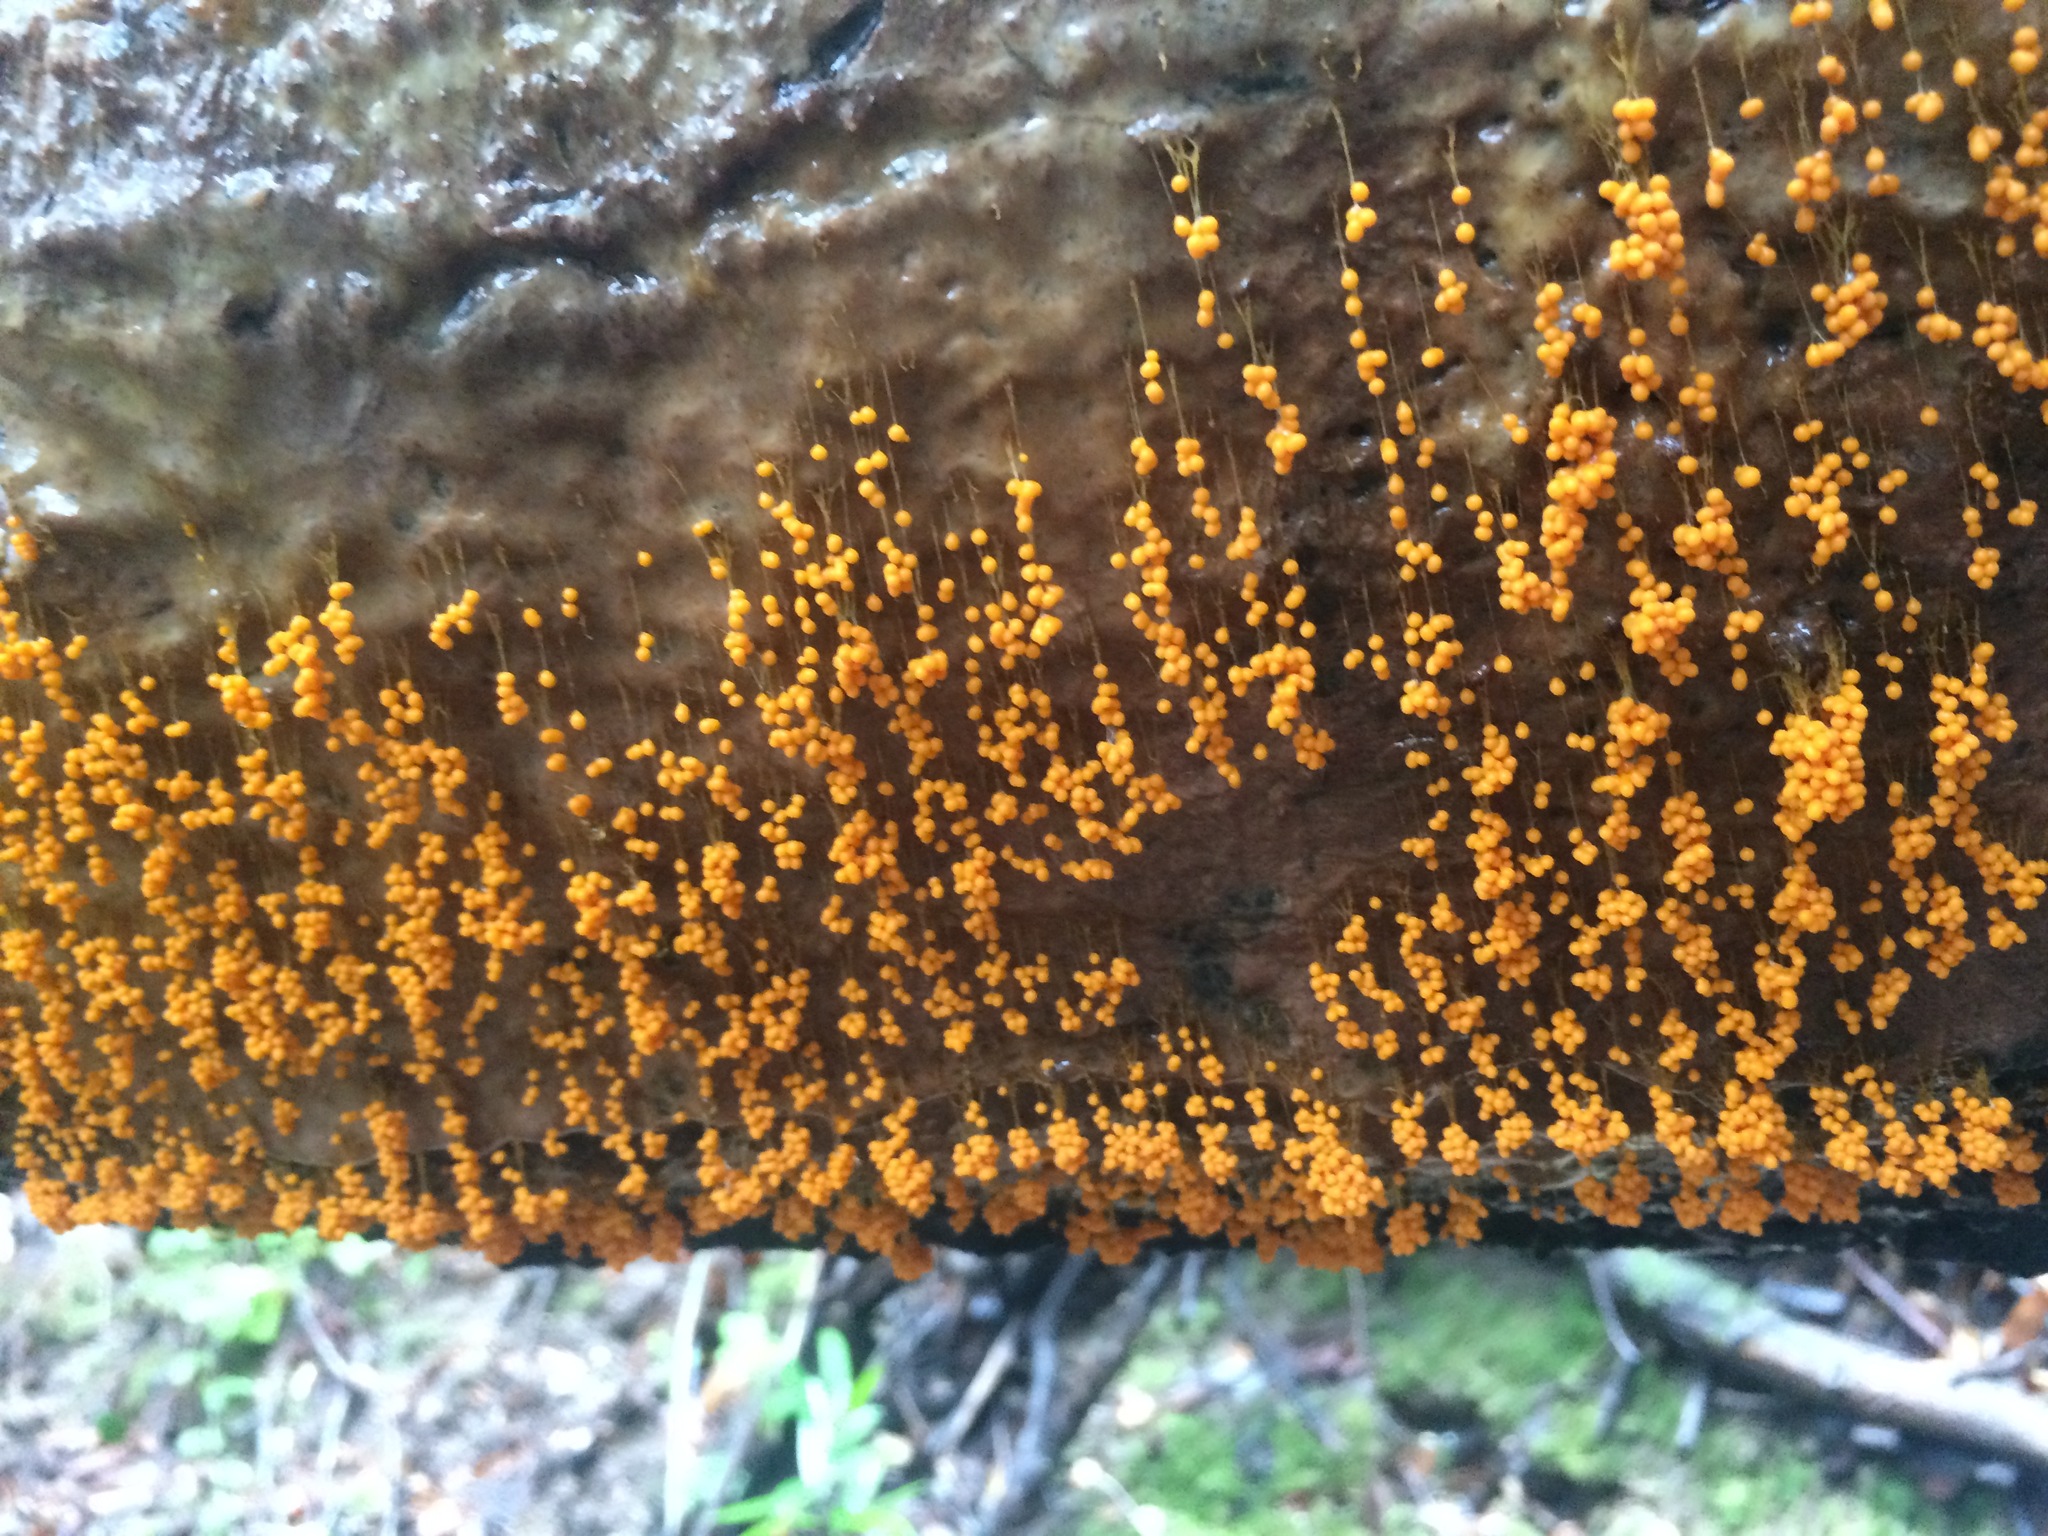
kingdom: Protozoa
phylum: Mycetozoa
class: Myxomycetes
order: Physarales
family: Physaraceae
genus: Badhamia
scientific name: Badhamia utricularis
